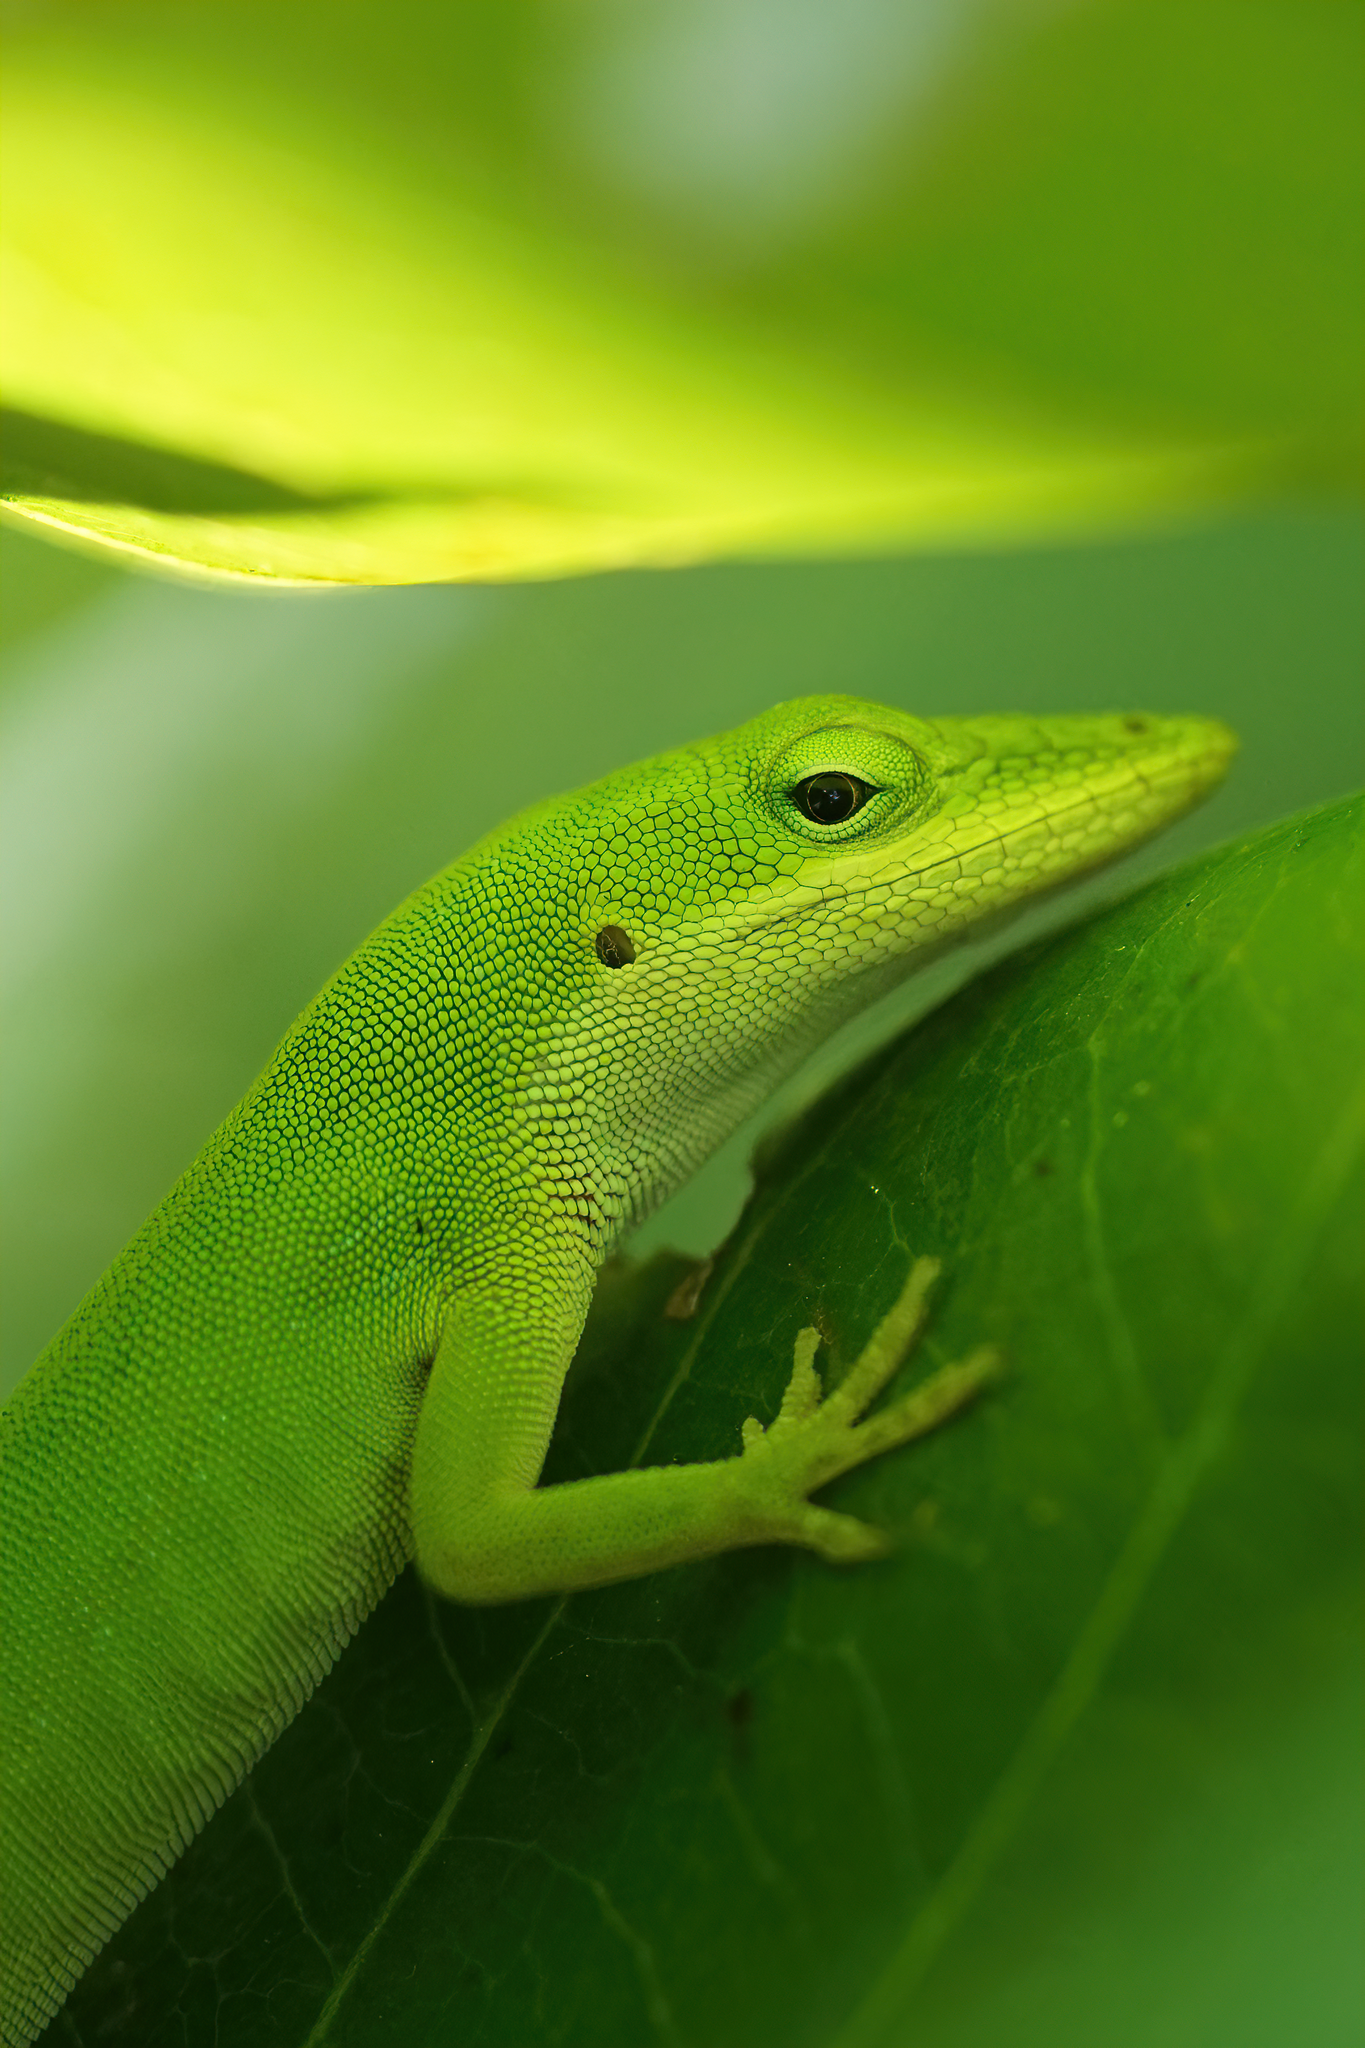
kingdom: Animalia
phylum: Chordata
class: Squamata
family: Dactyloidae
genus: Anolis
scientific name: Anolis carolinensis
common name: Green anole
